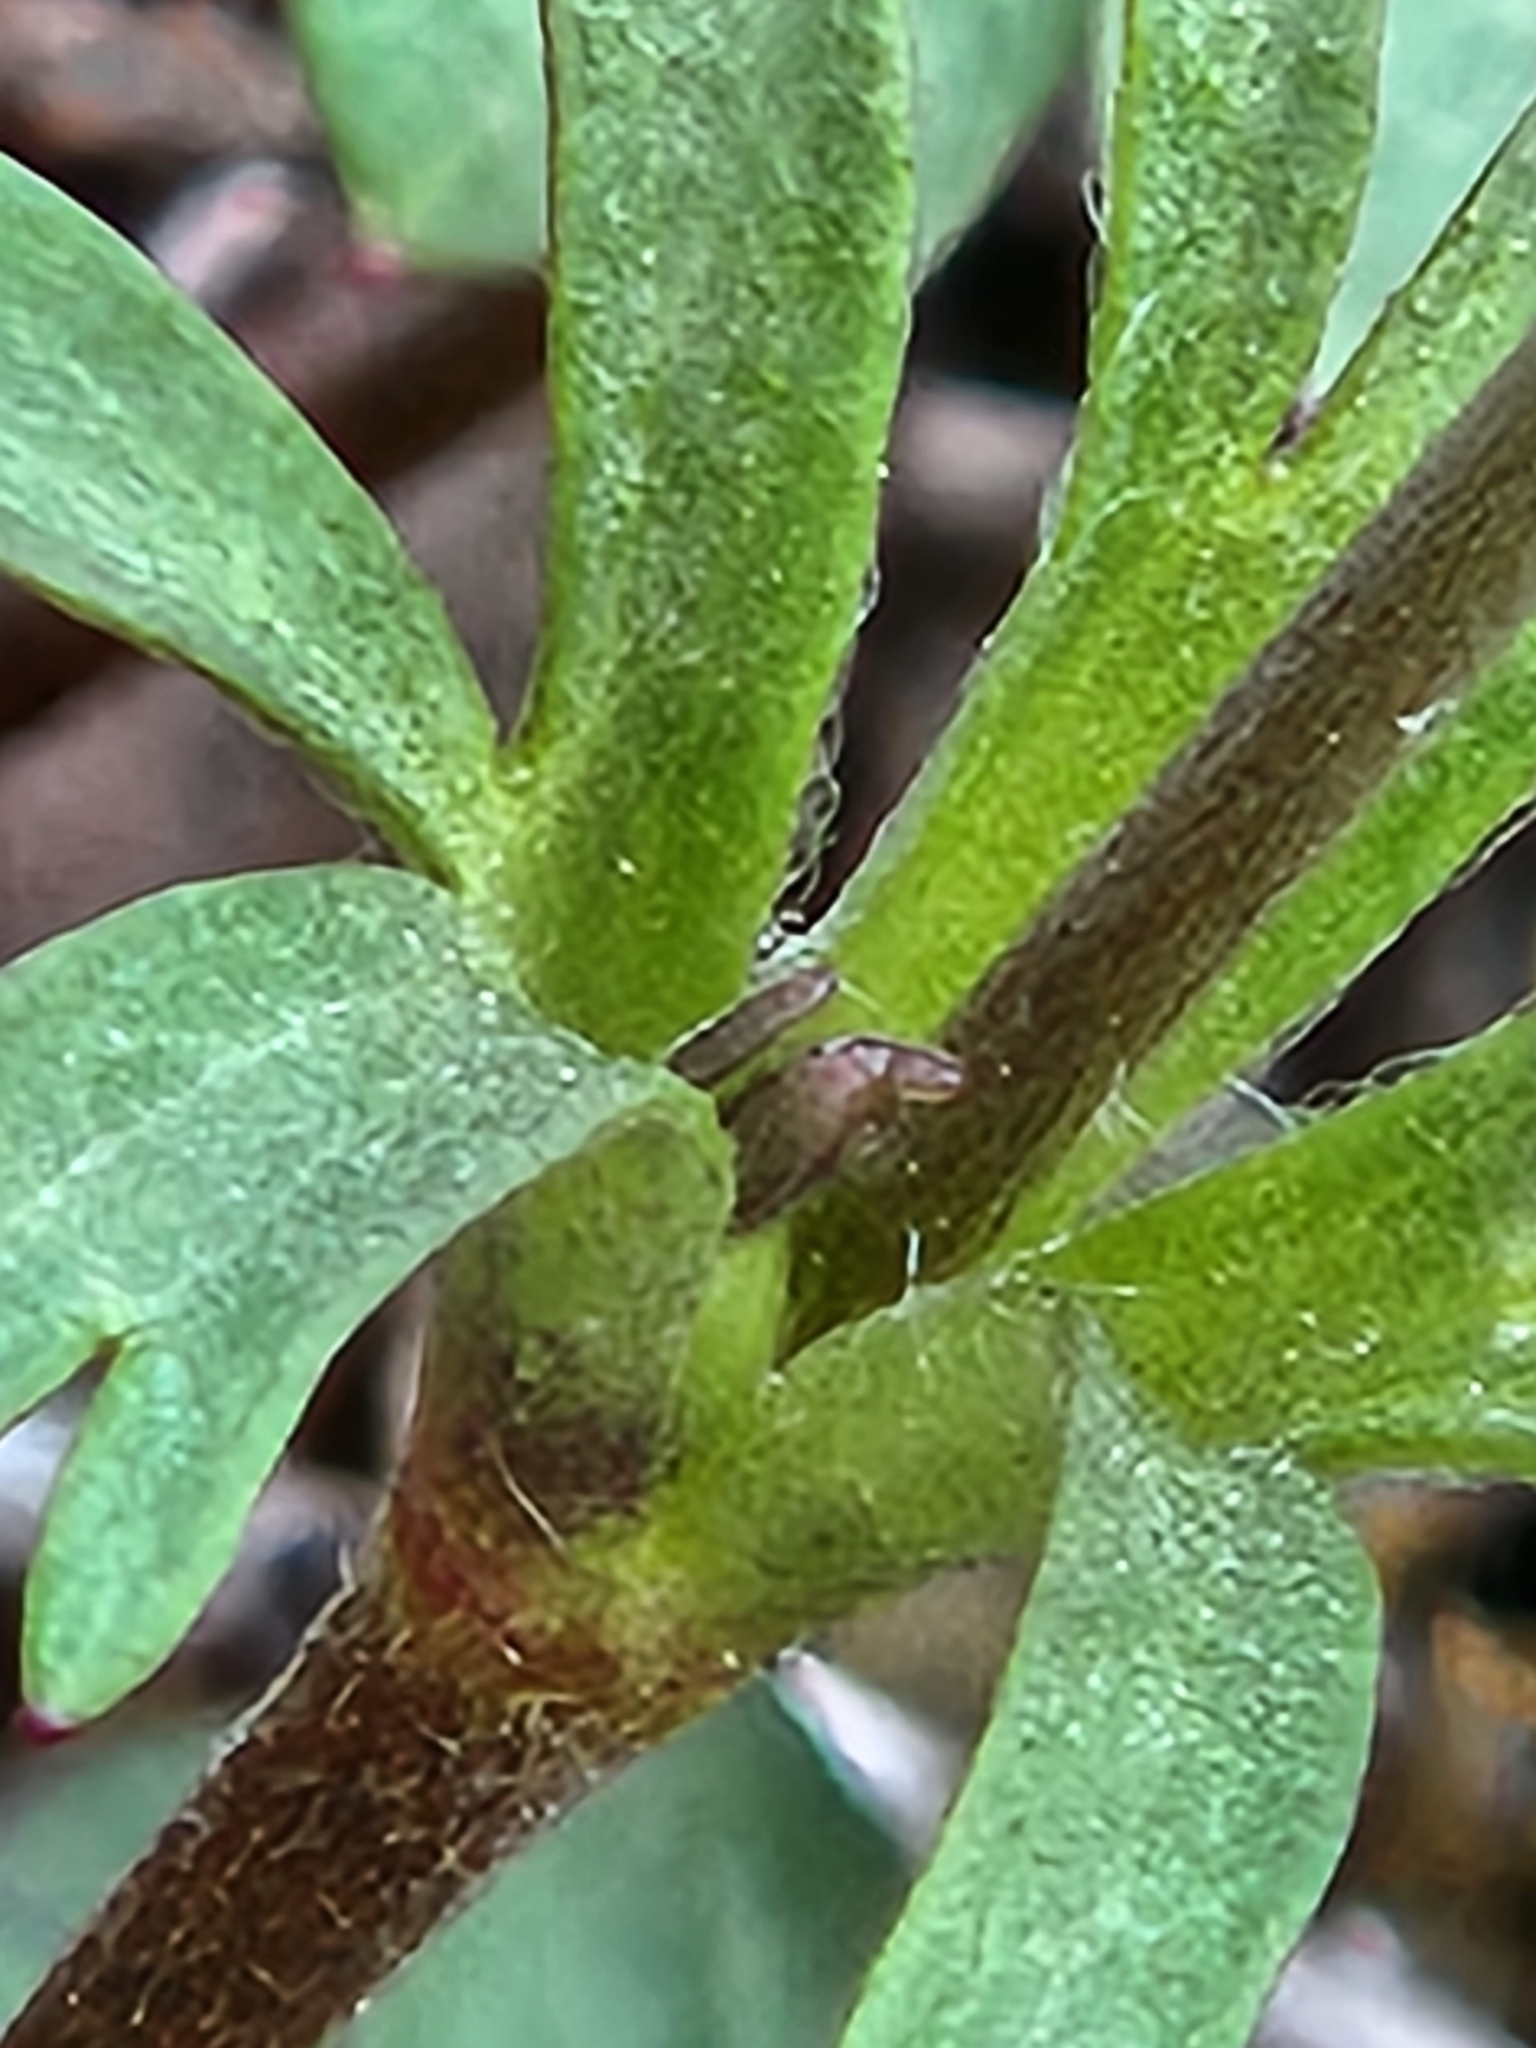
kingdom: Plantae
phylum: Tracheophyta
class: Magnoliopsida
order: Ranunculales
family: Ranunculaceae
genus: Anemone
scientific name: Anemone edwardsiana
